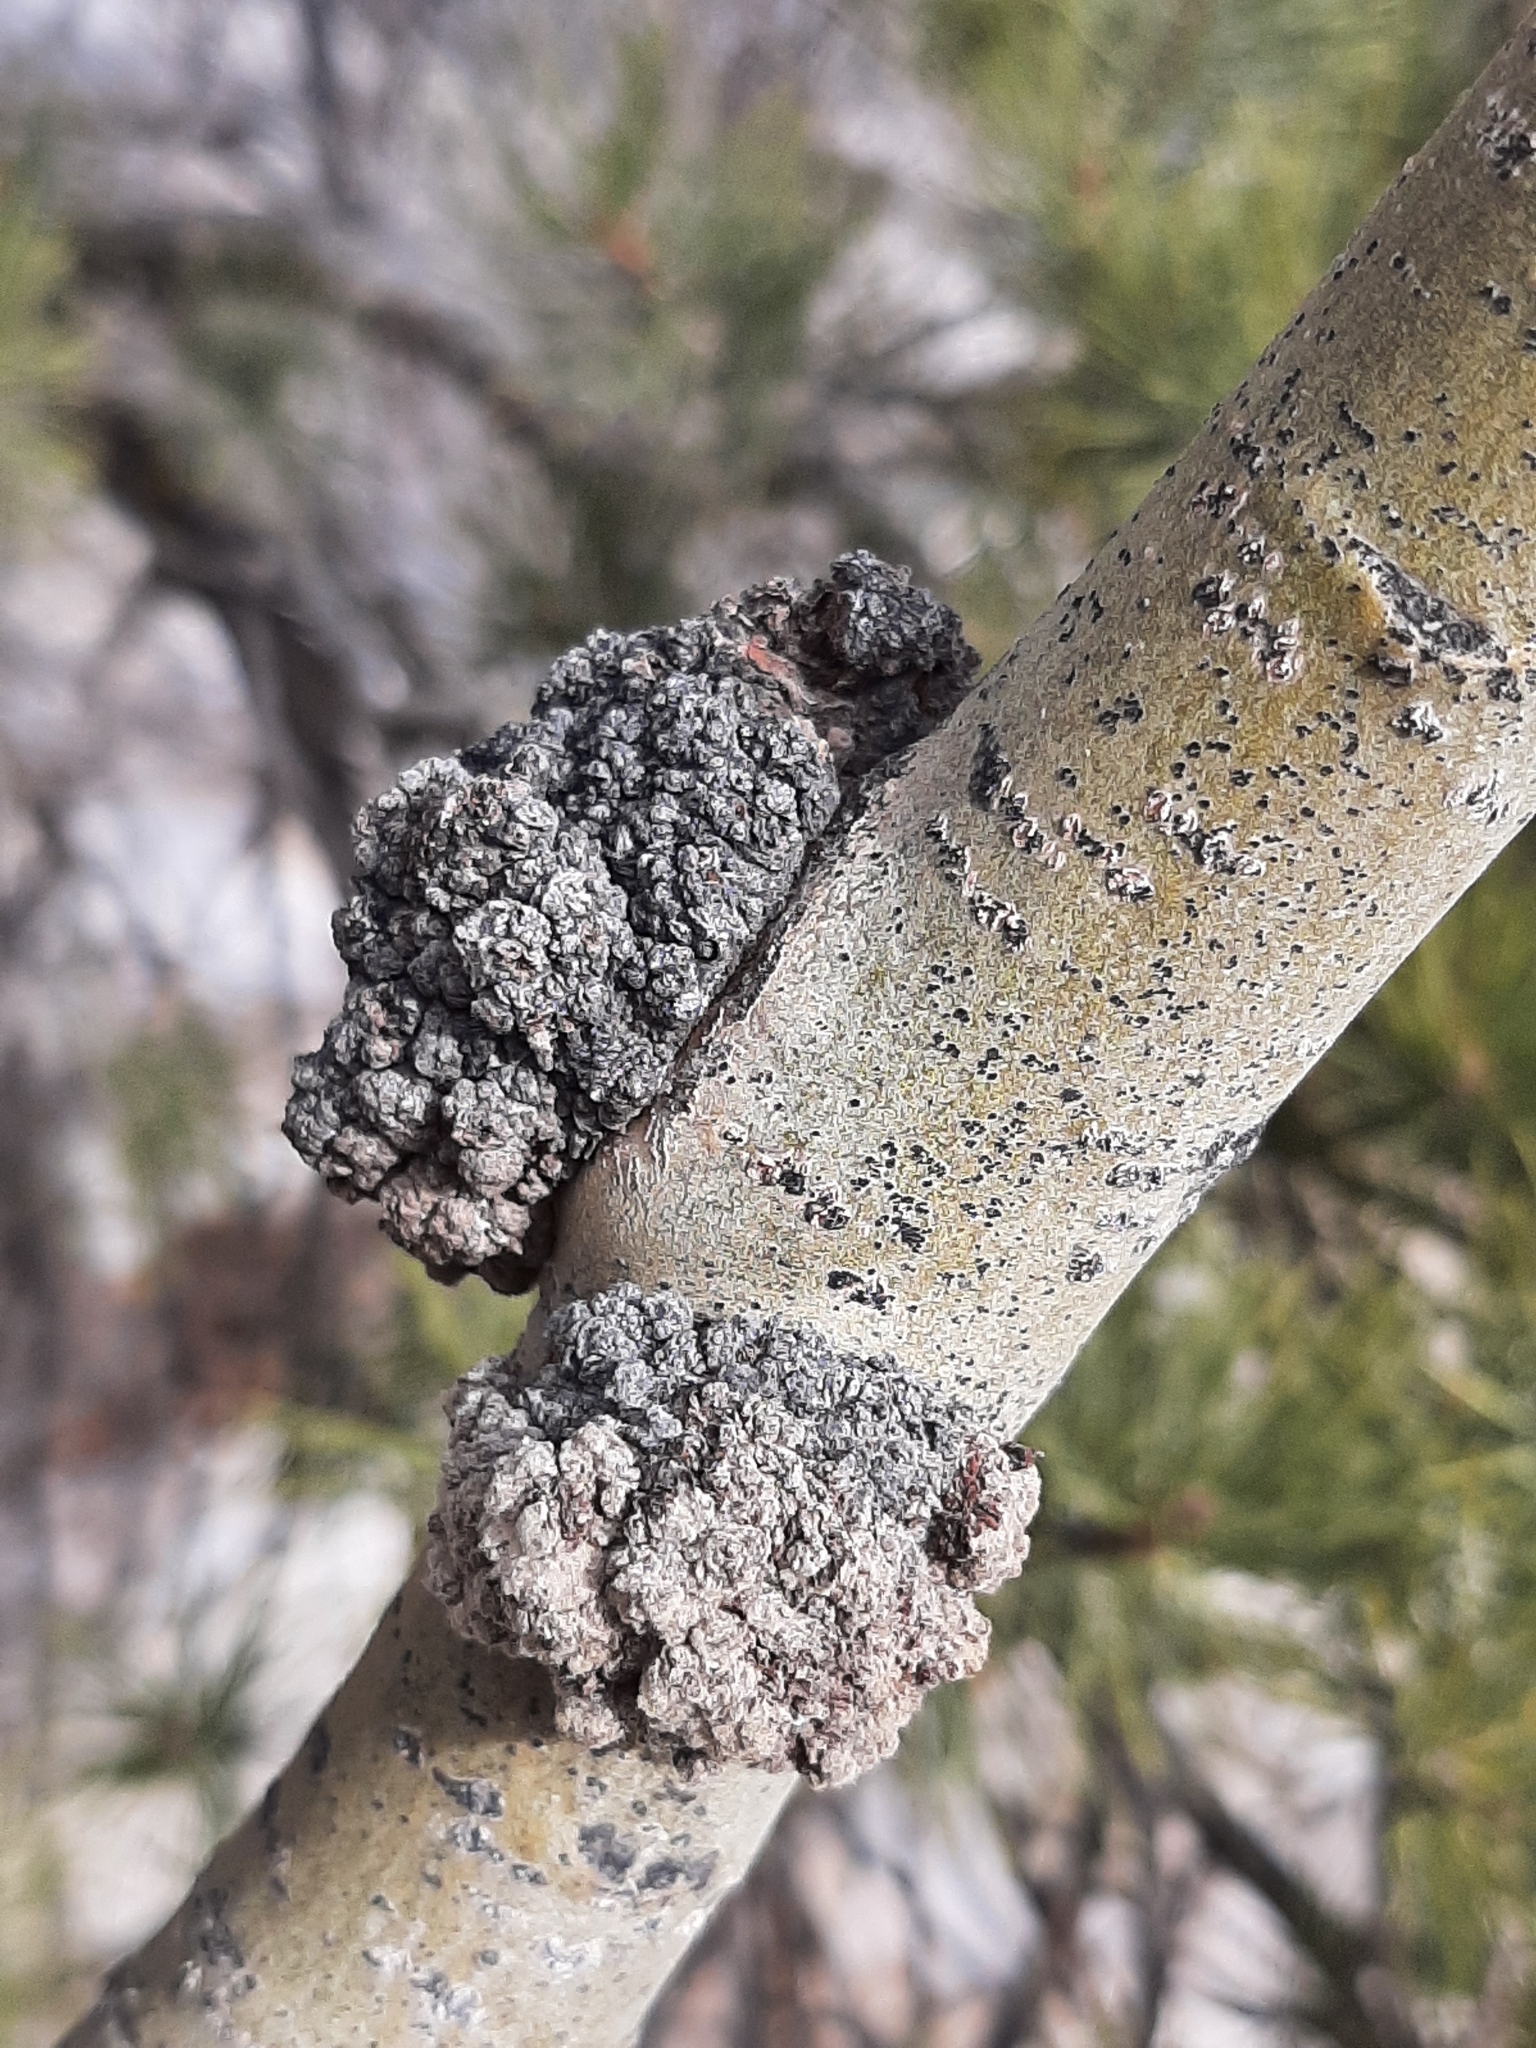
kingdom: Animalia
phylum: Arthropoda
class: Arachnida
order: Trombidiformes
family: Eriophyidae
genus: Aceria
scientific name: Aceria
